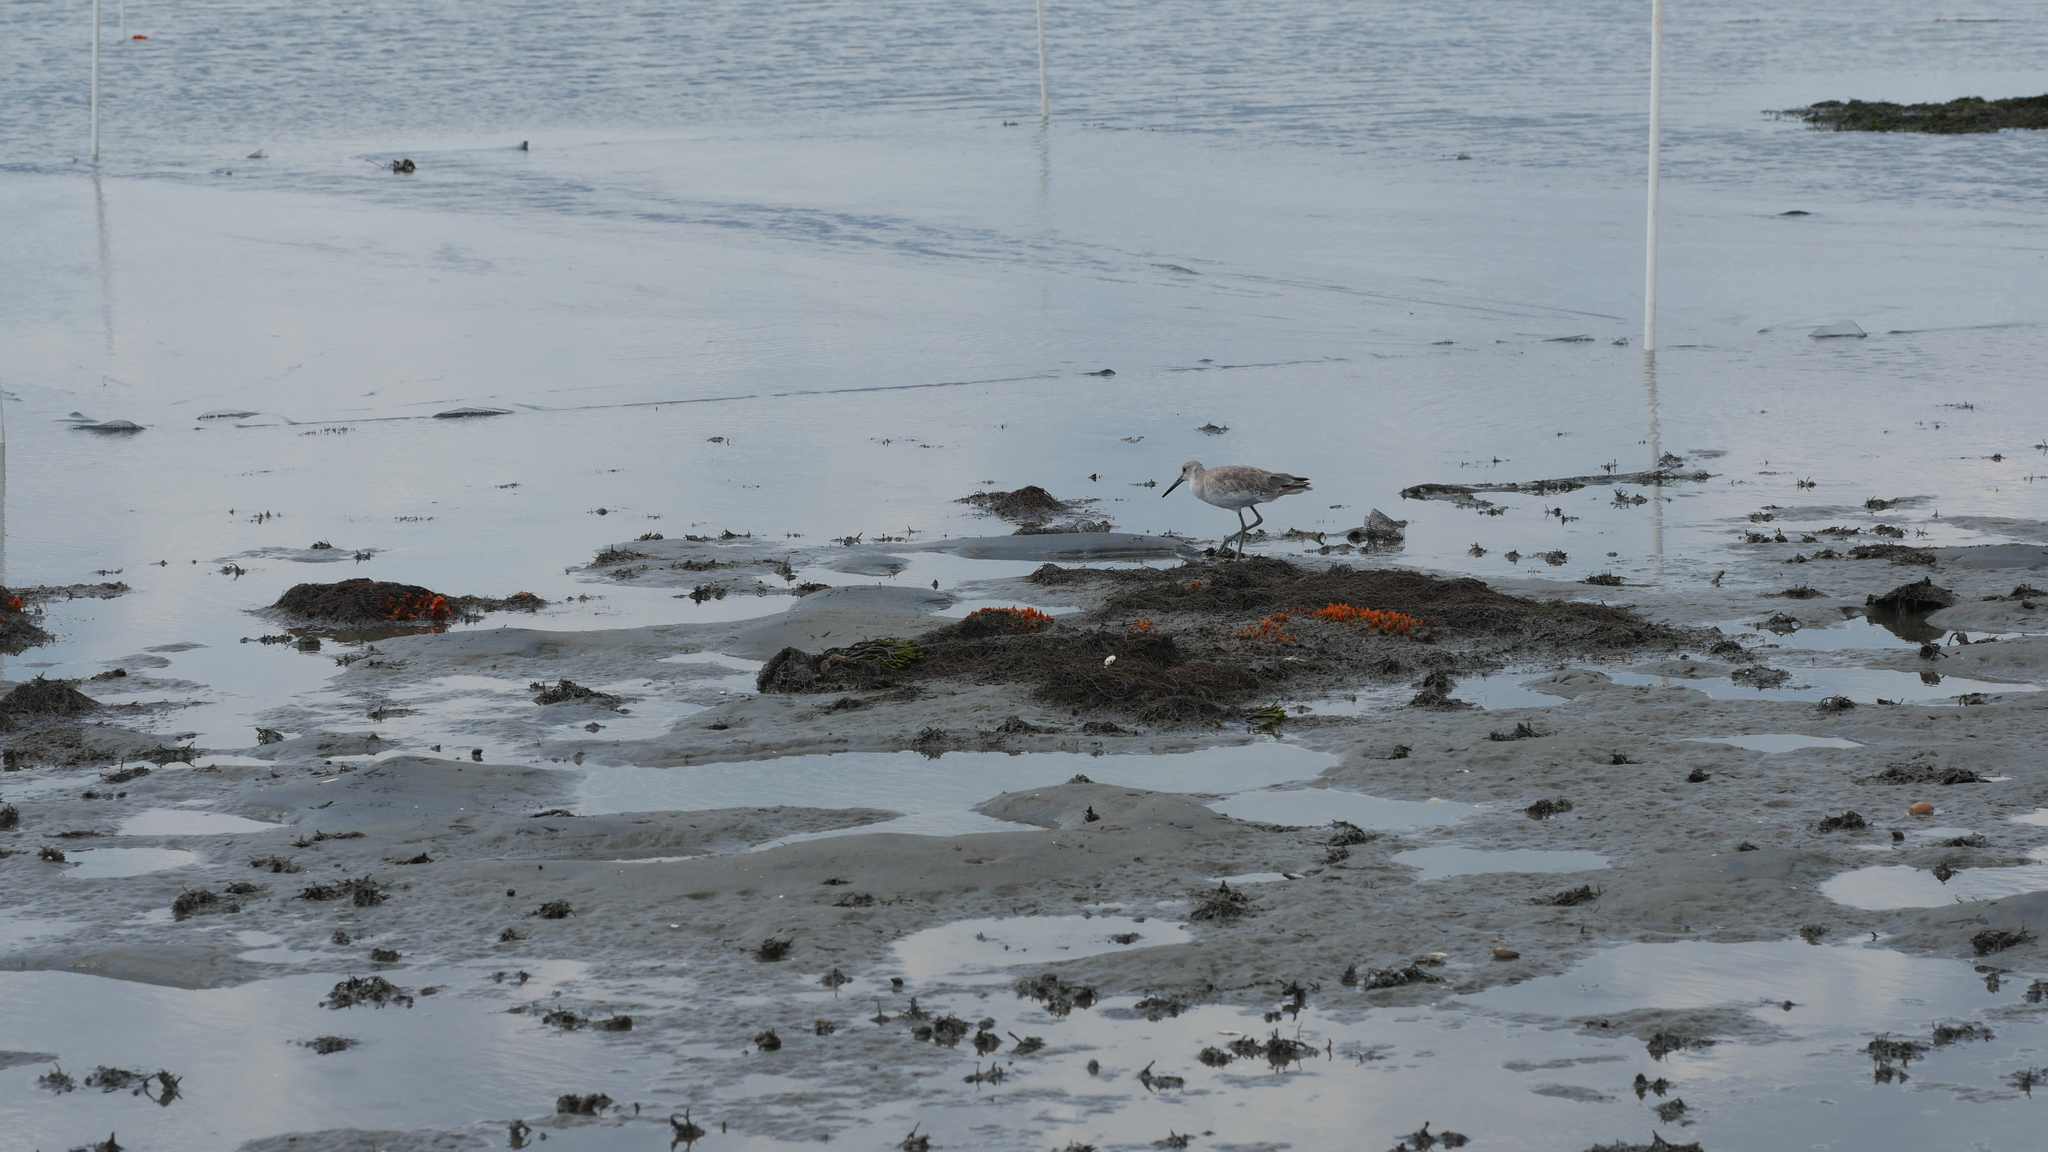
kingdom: Animalia
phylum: Chordata
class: Aves
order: Charadriiformes
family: Scolopacidae
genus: Tringa
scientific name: Tringa semipalmata
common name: Willet
